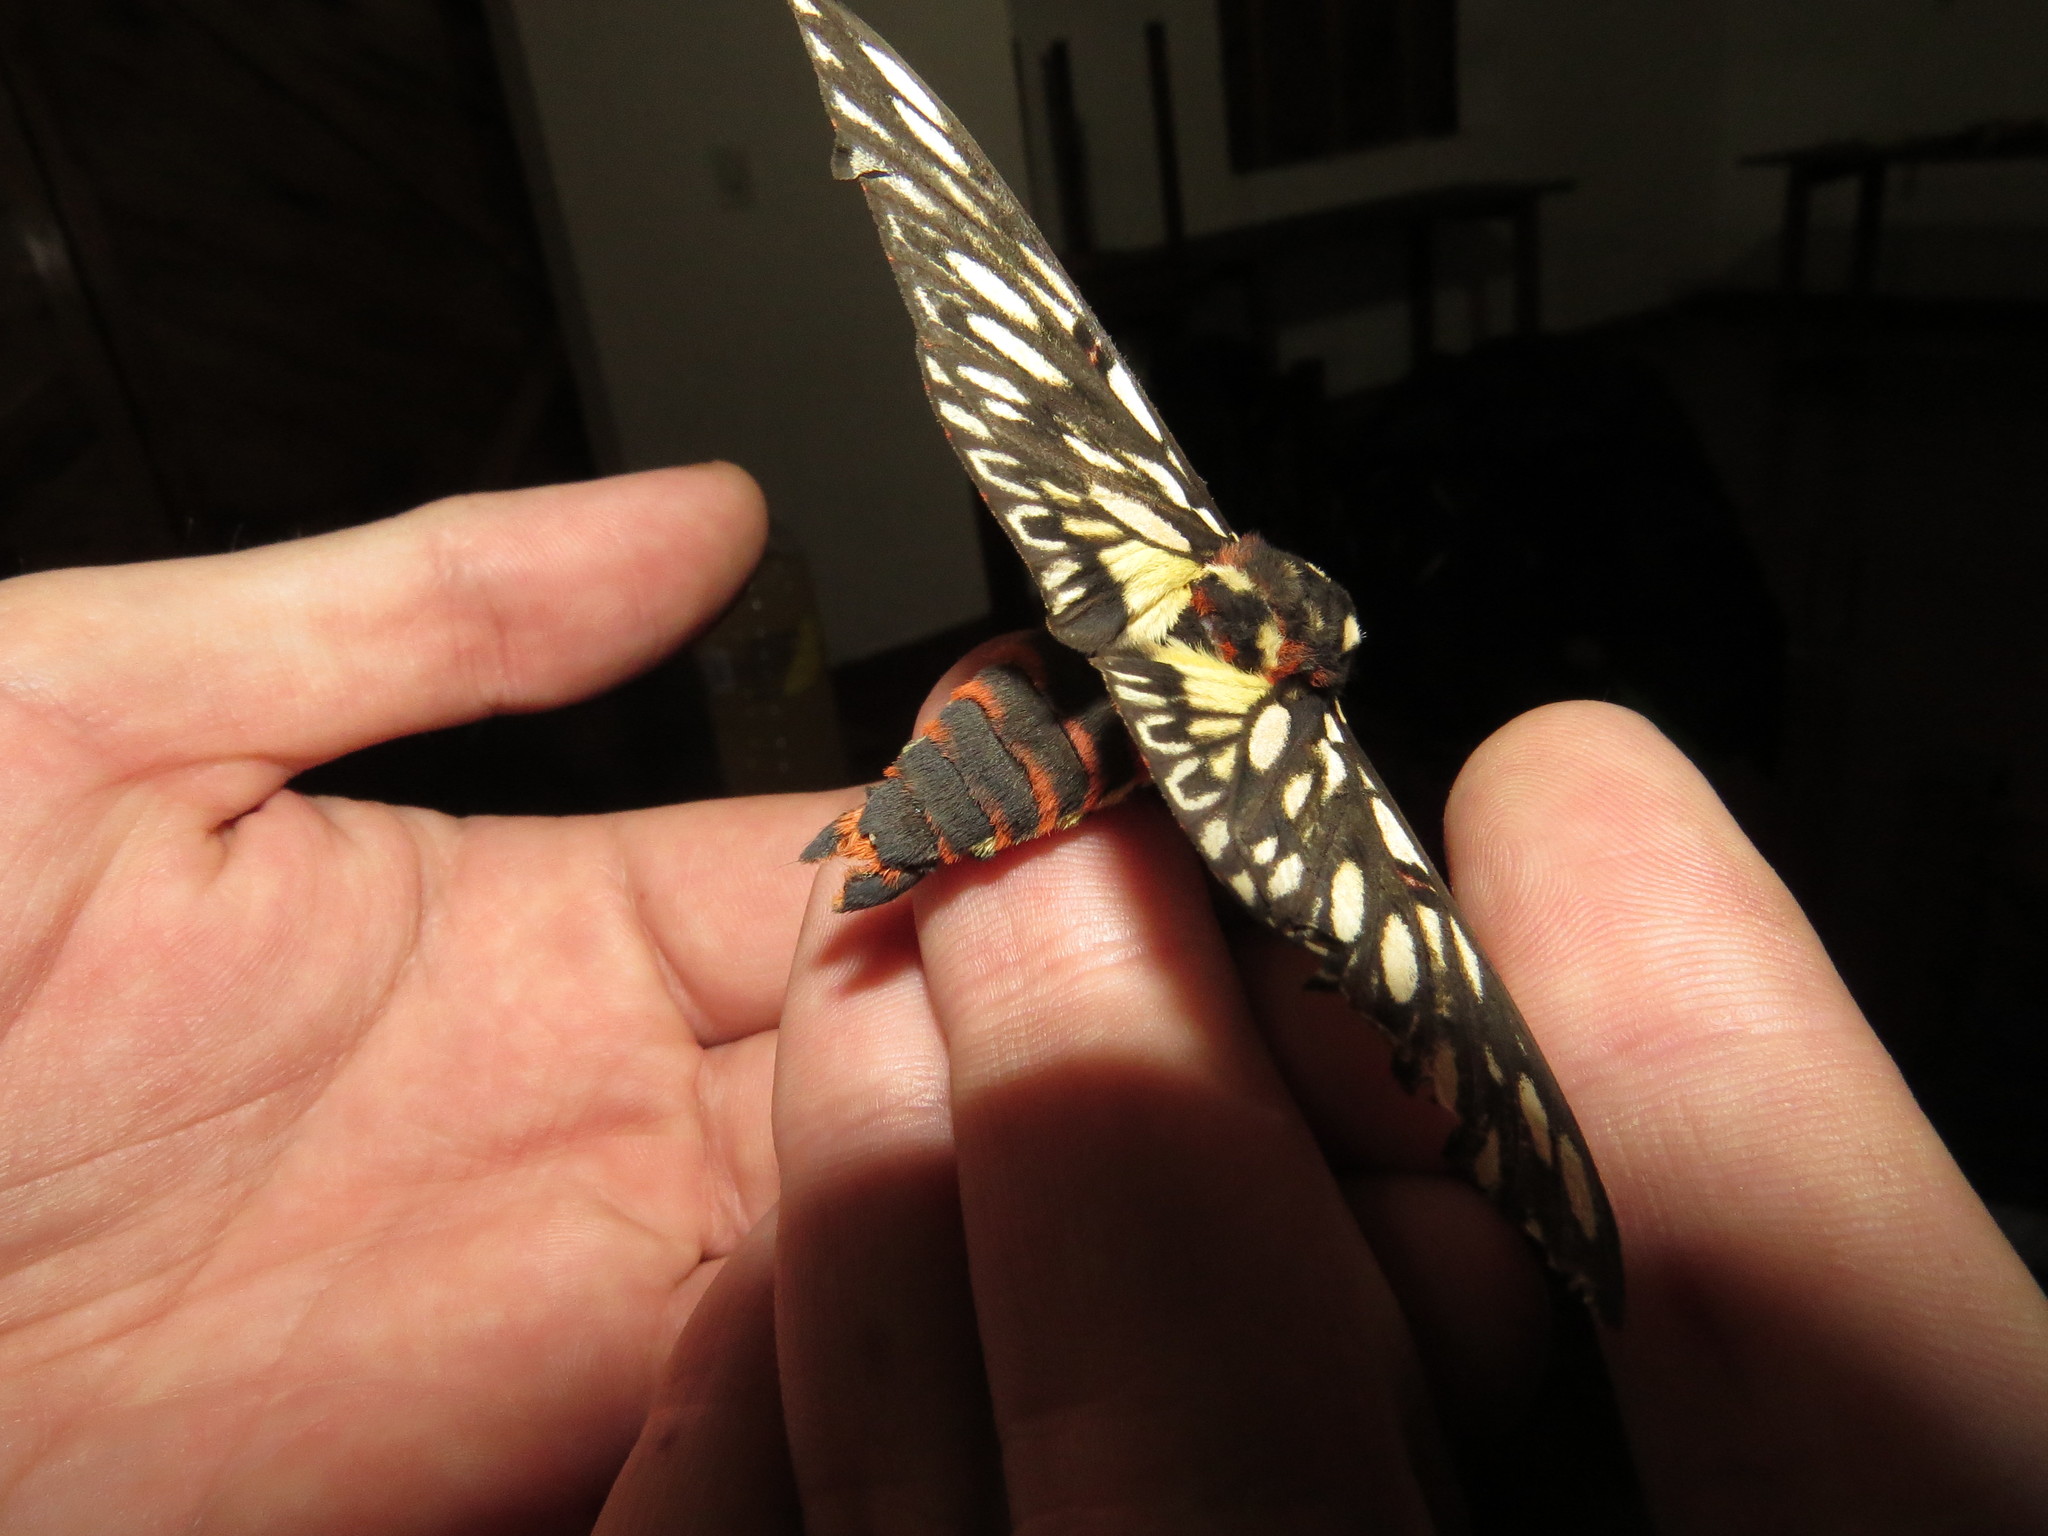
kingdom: Animalia
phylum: Arthropoda
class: Insecta
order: Lepidoptera
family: Saturniidae
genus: Citheronia
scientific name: Citheronia vogleri
